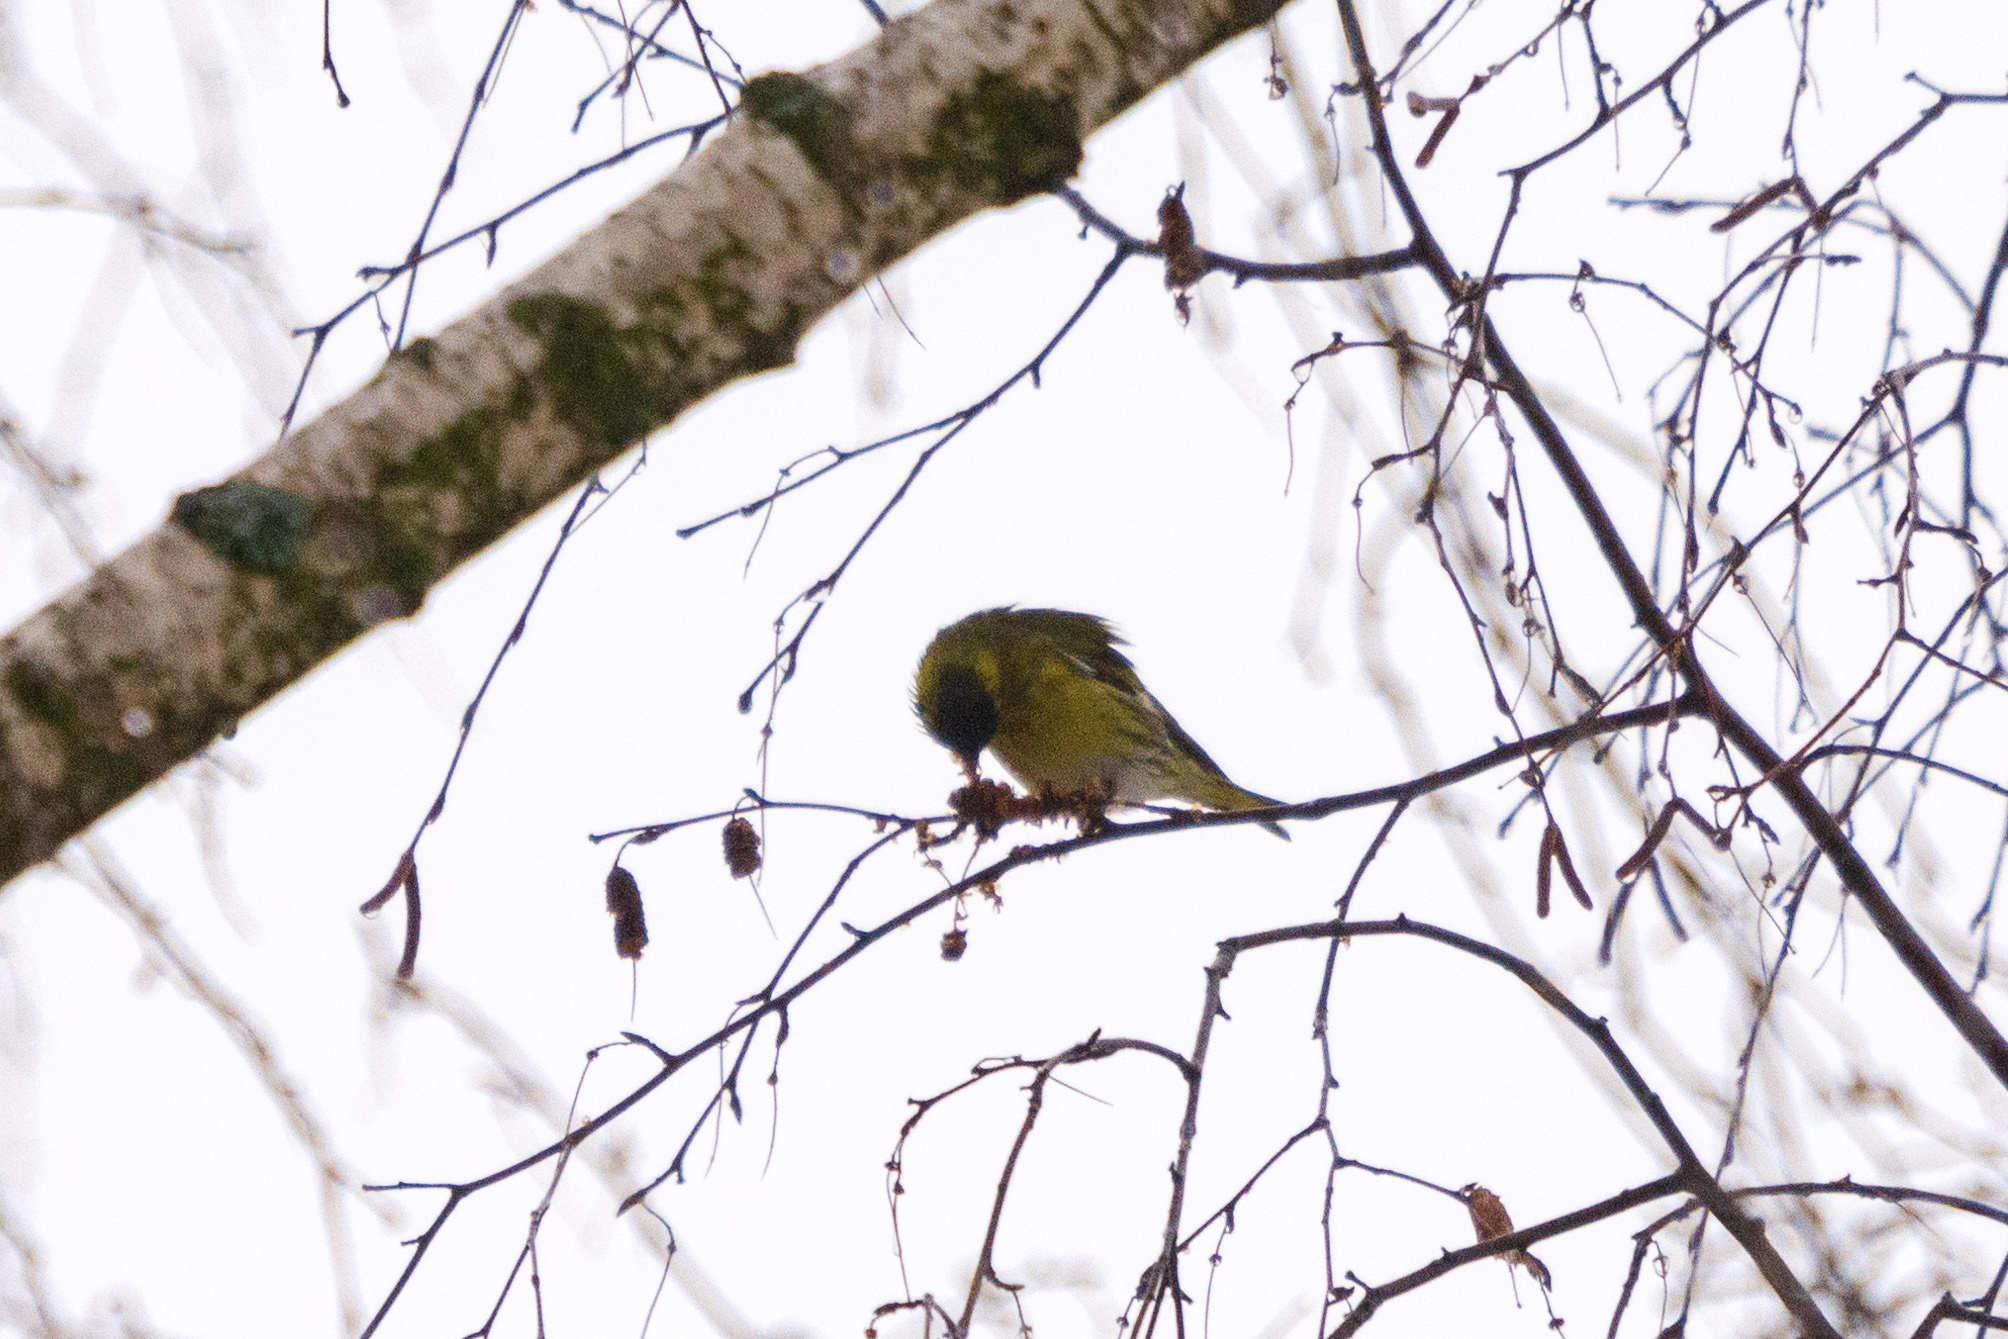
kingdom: Animalia
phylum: Chordata
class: Aves
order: Passeriformes
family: Fringillidae
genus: Spinus
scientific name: Spinus spinus
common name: Eurasian siskin
